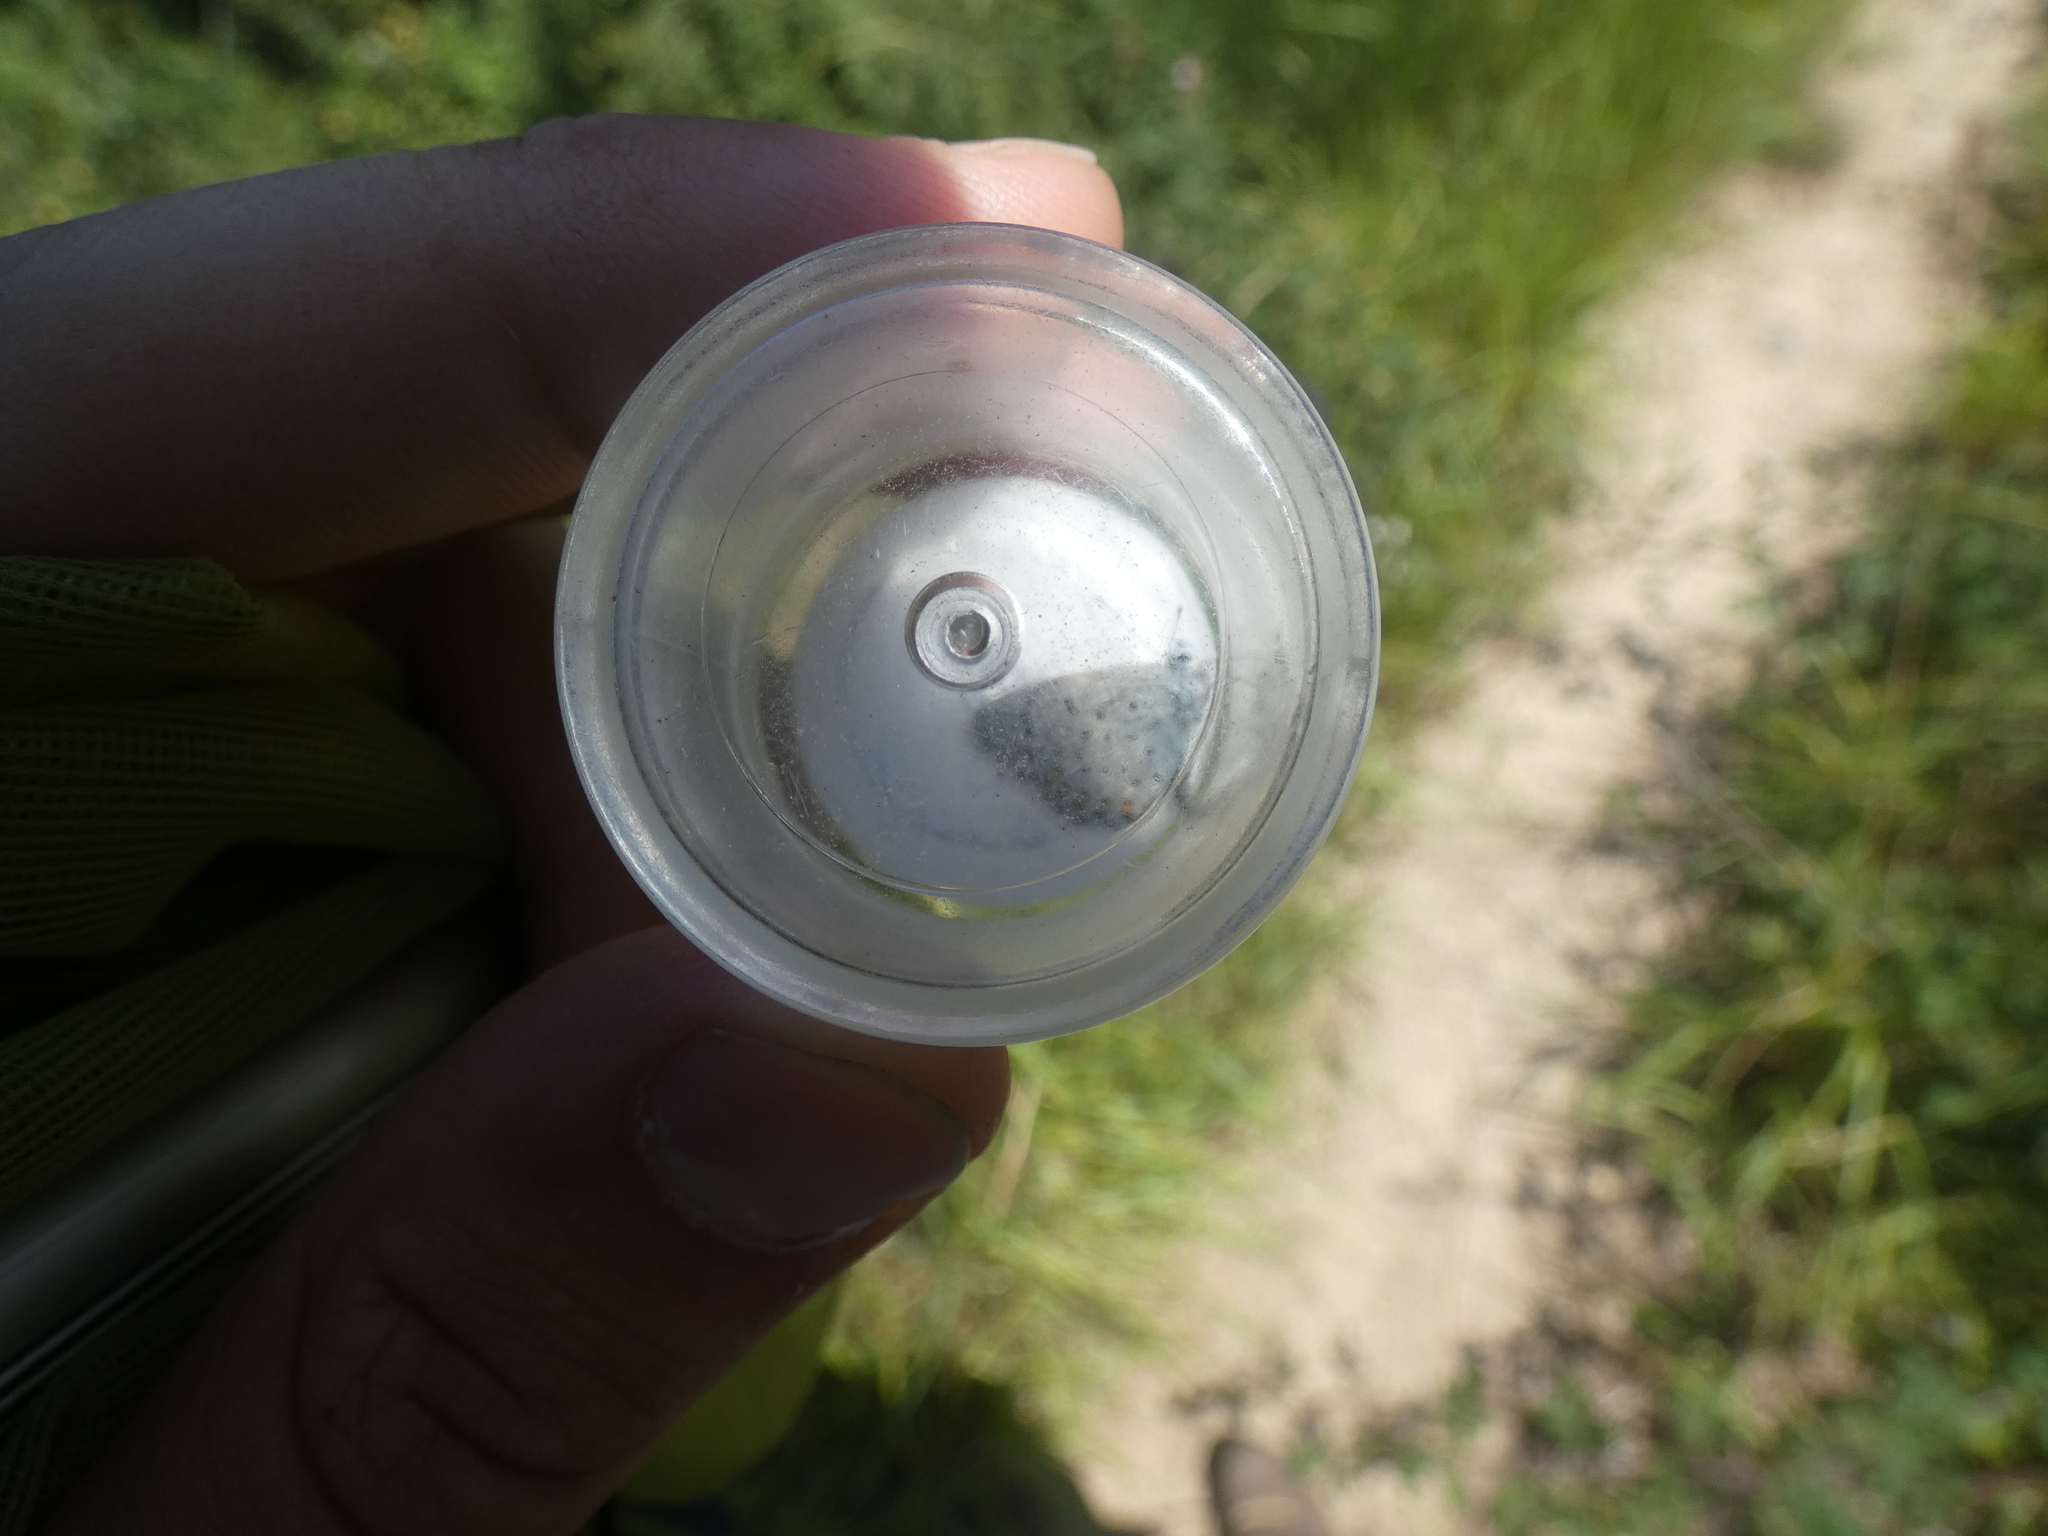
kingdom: Animalia
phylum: Arthropoda
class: Insecta
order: Lepidoptera
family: Lycaenidae
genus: Pseudophilotes
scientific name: Pseudophilotes baton
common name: Baton blue
